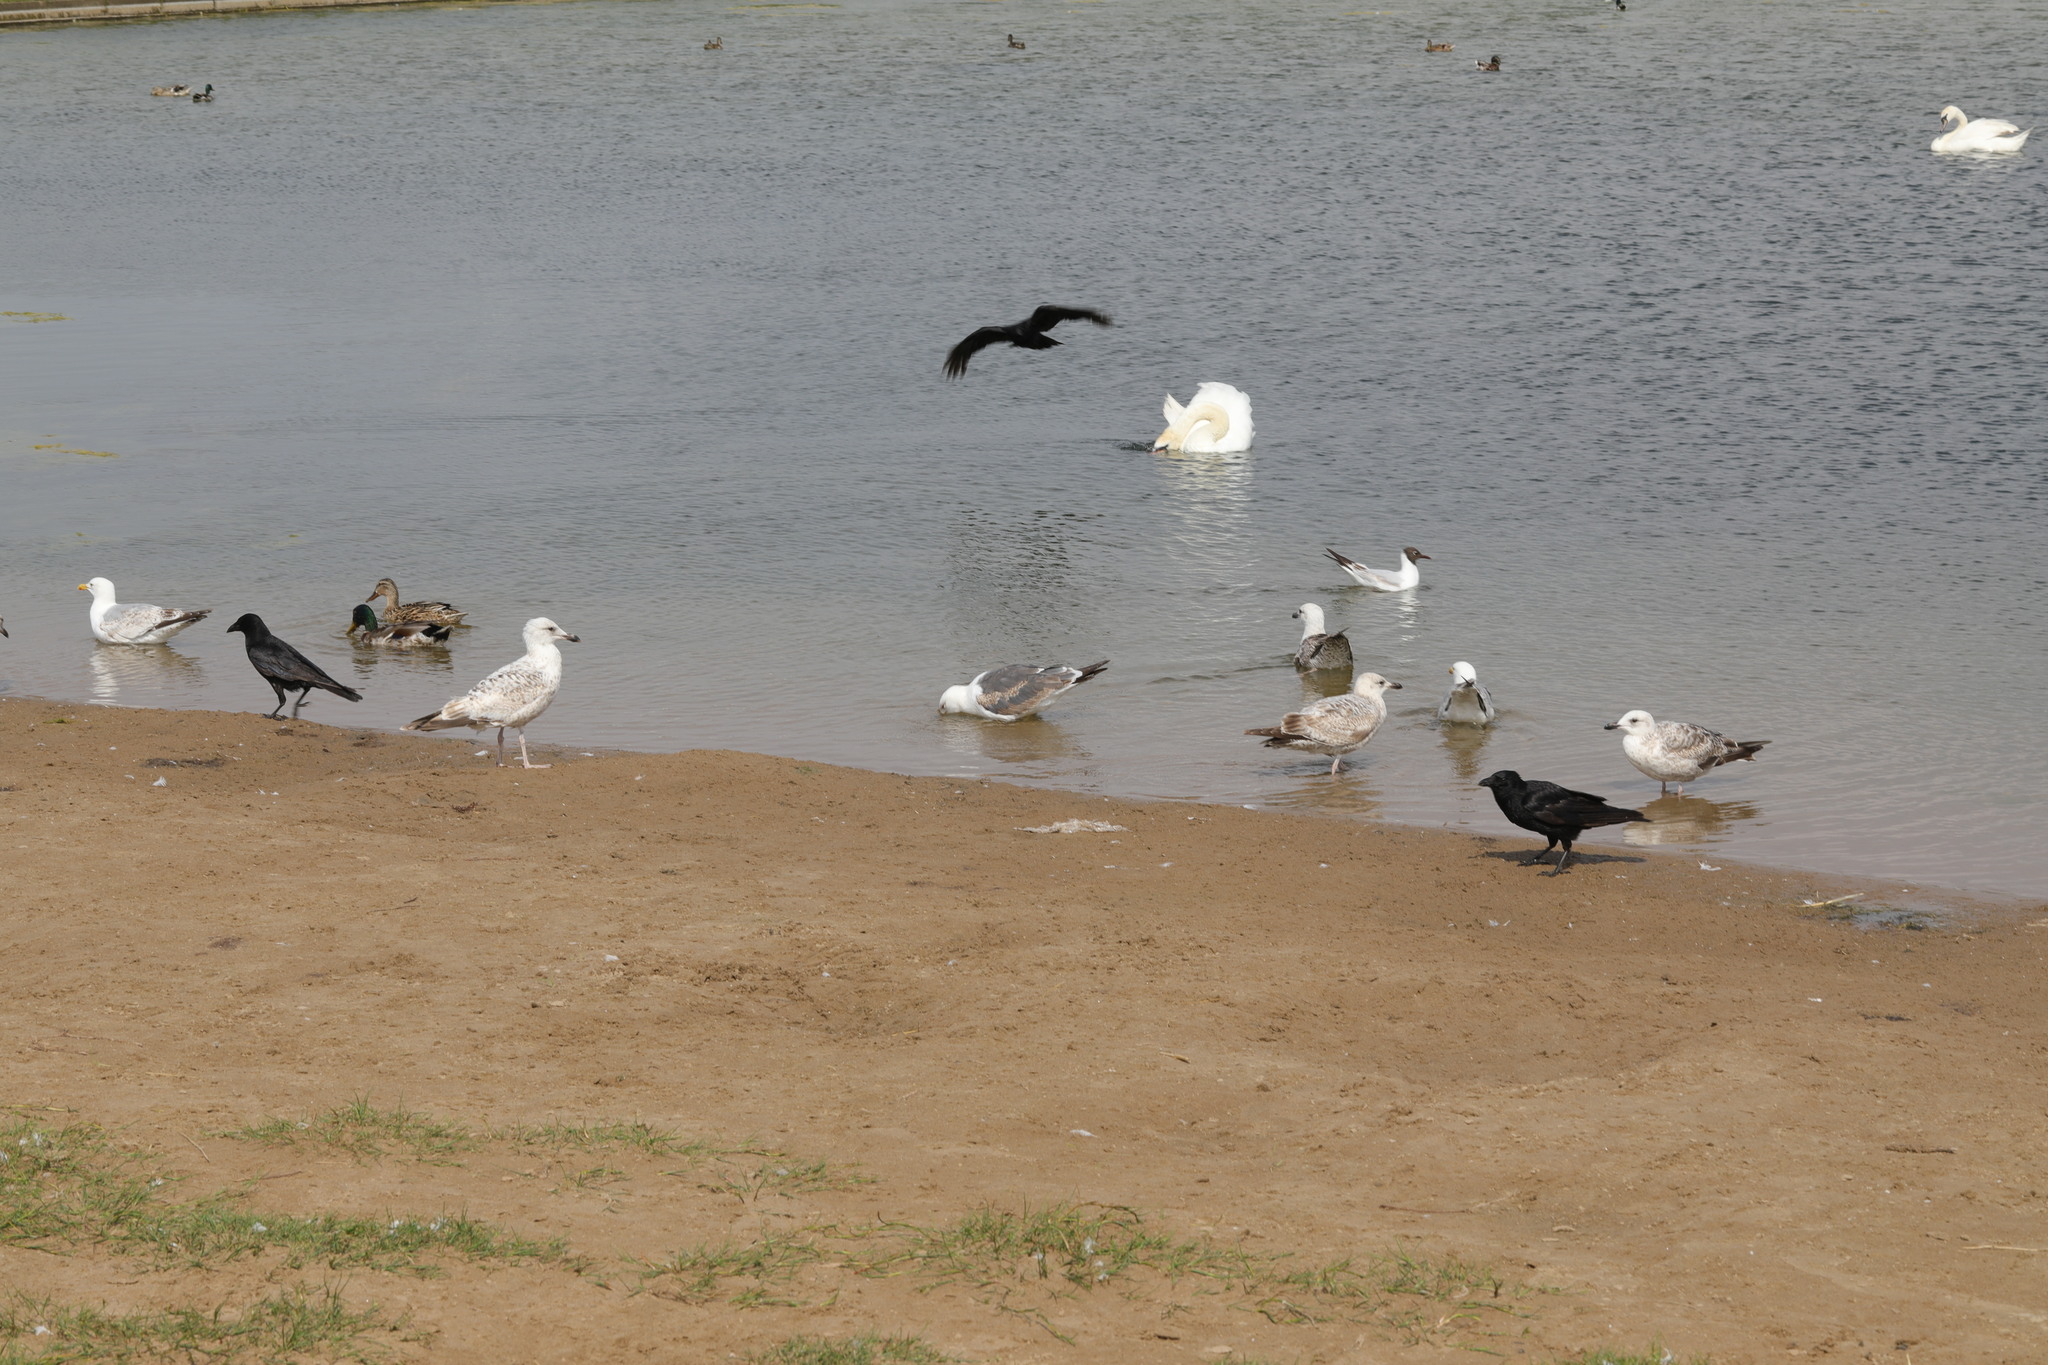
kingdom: Animalia
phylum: Chordata
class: Aves
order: Passeriformes
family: Corvidae
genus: Corvus
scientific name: Corvus corone
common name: Carrion crow
